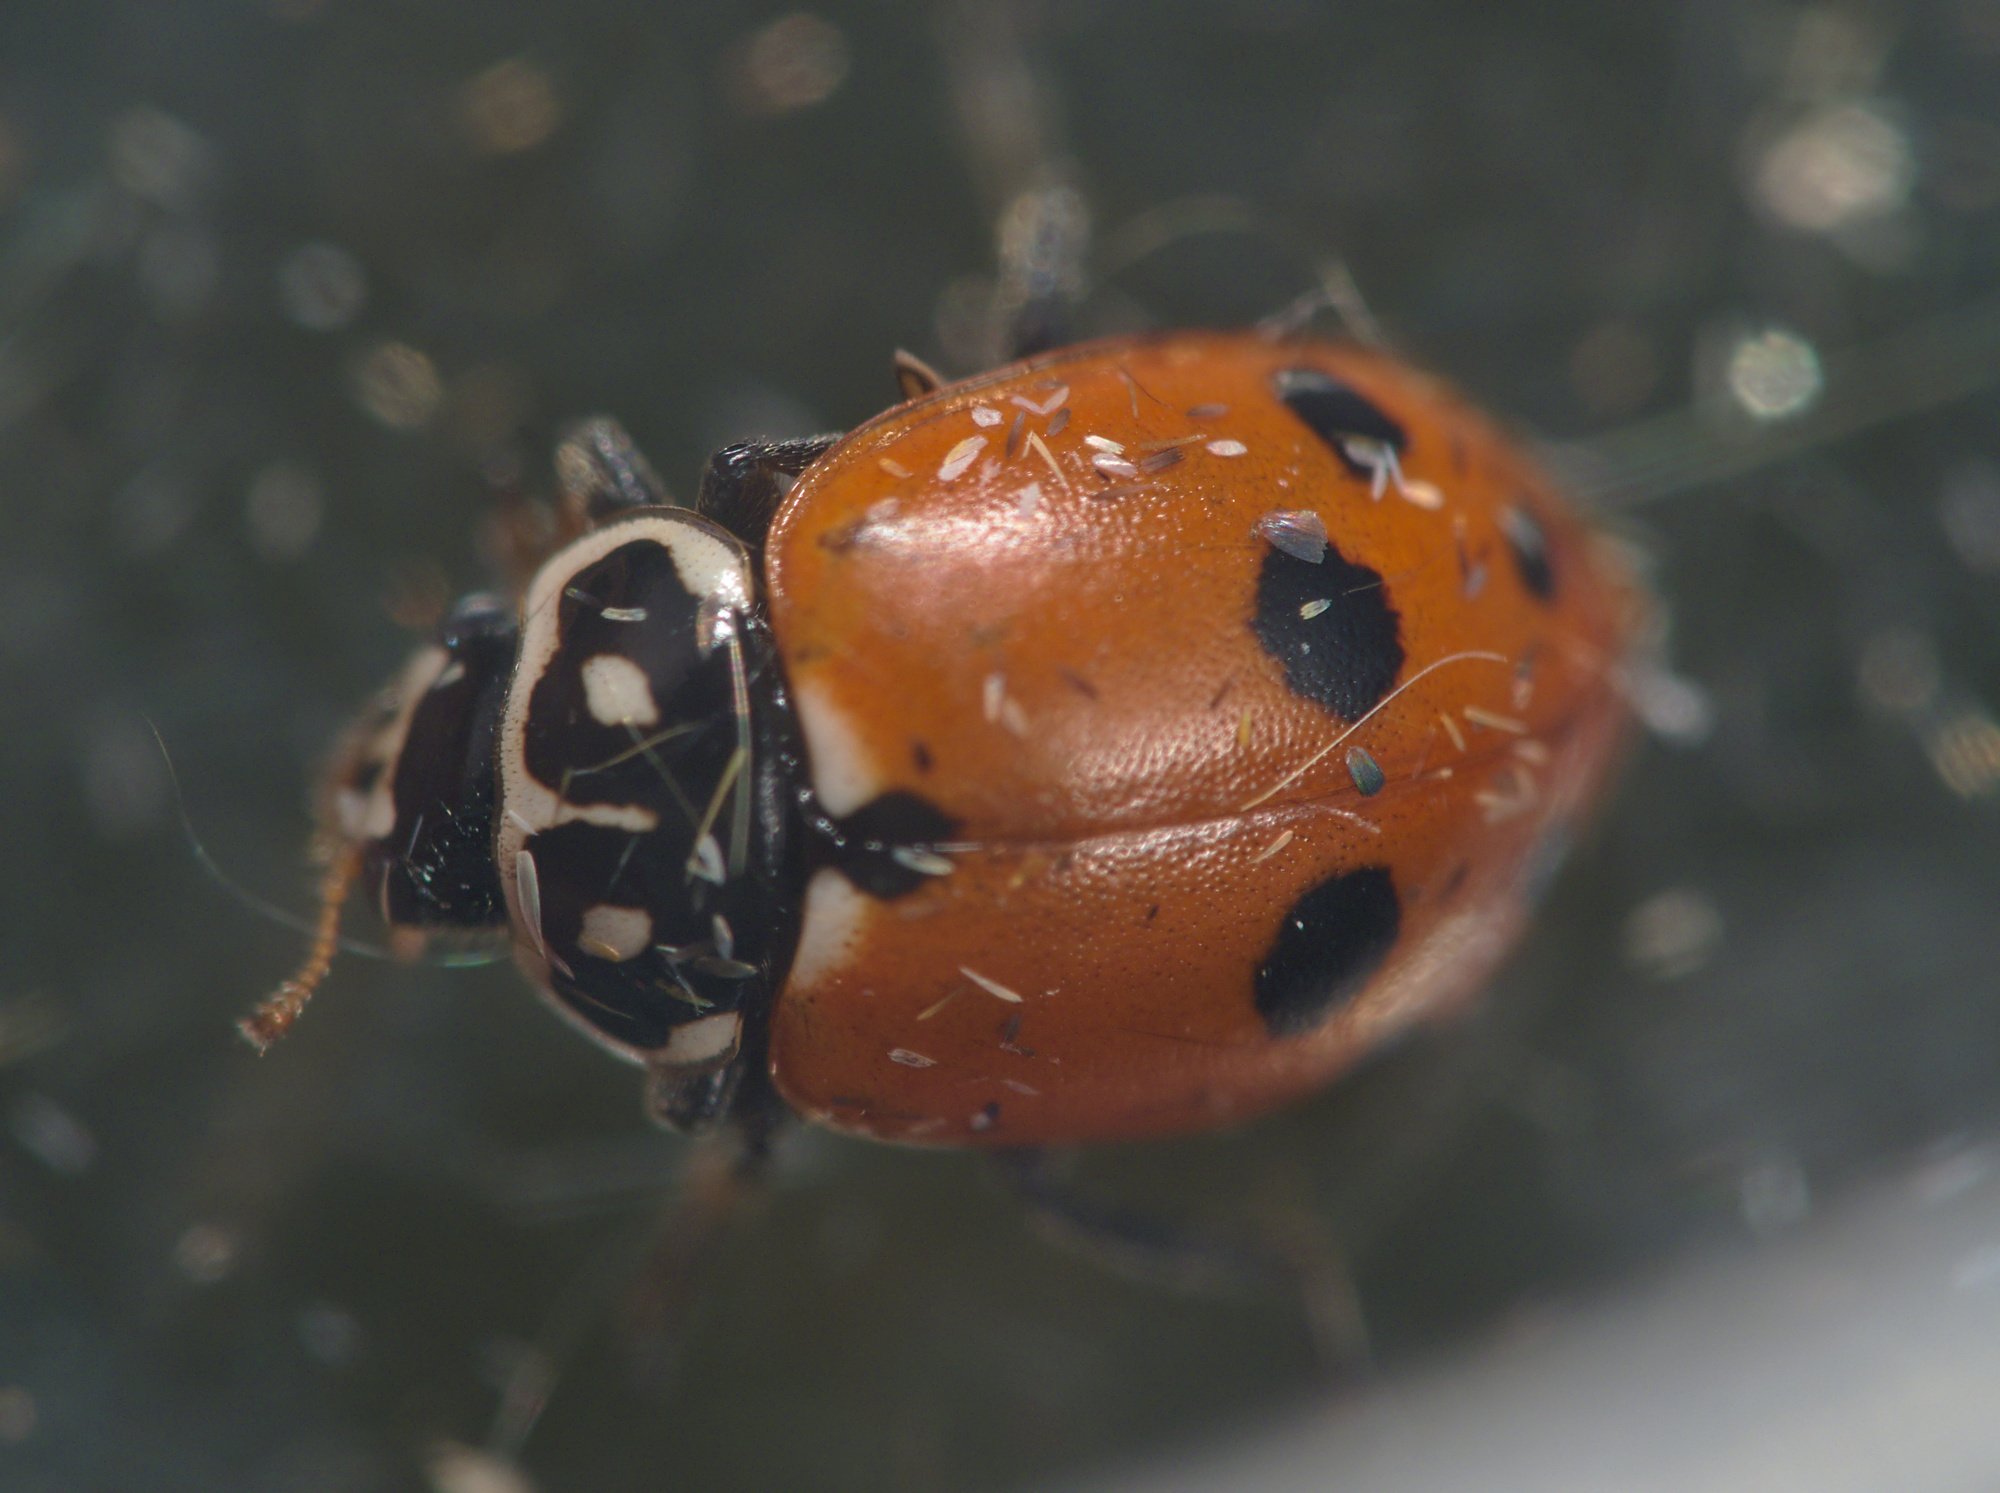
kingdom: Animalia
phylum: Arthropoda
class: Insecta
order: Coleoptera
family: Coccinellidae
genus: Hippodamia
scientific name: Hippodamia variegata
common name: Ladybird beetle
